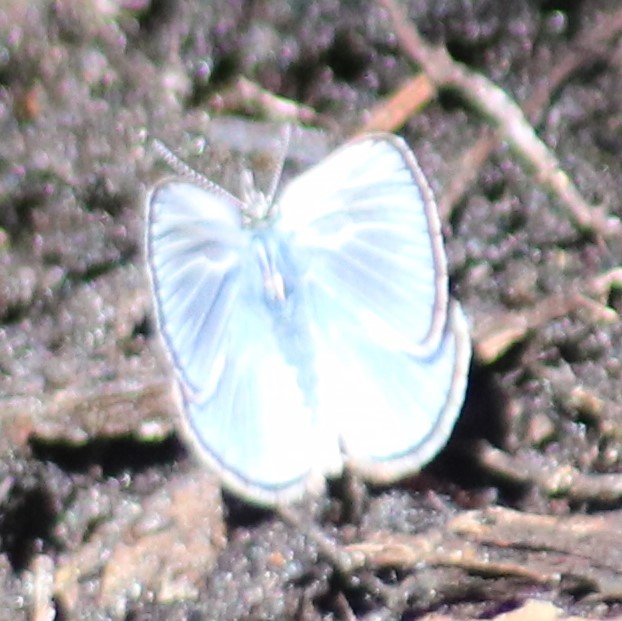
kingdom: Animalia
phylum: Arthropoda
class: Insecta
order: Lepidoptera
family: Lycaenidae
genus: Glaucopsyche
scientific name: Glaucopsyche lygdamus
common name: Silvery blue
